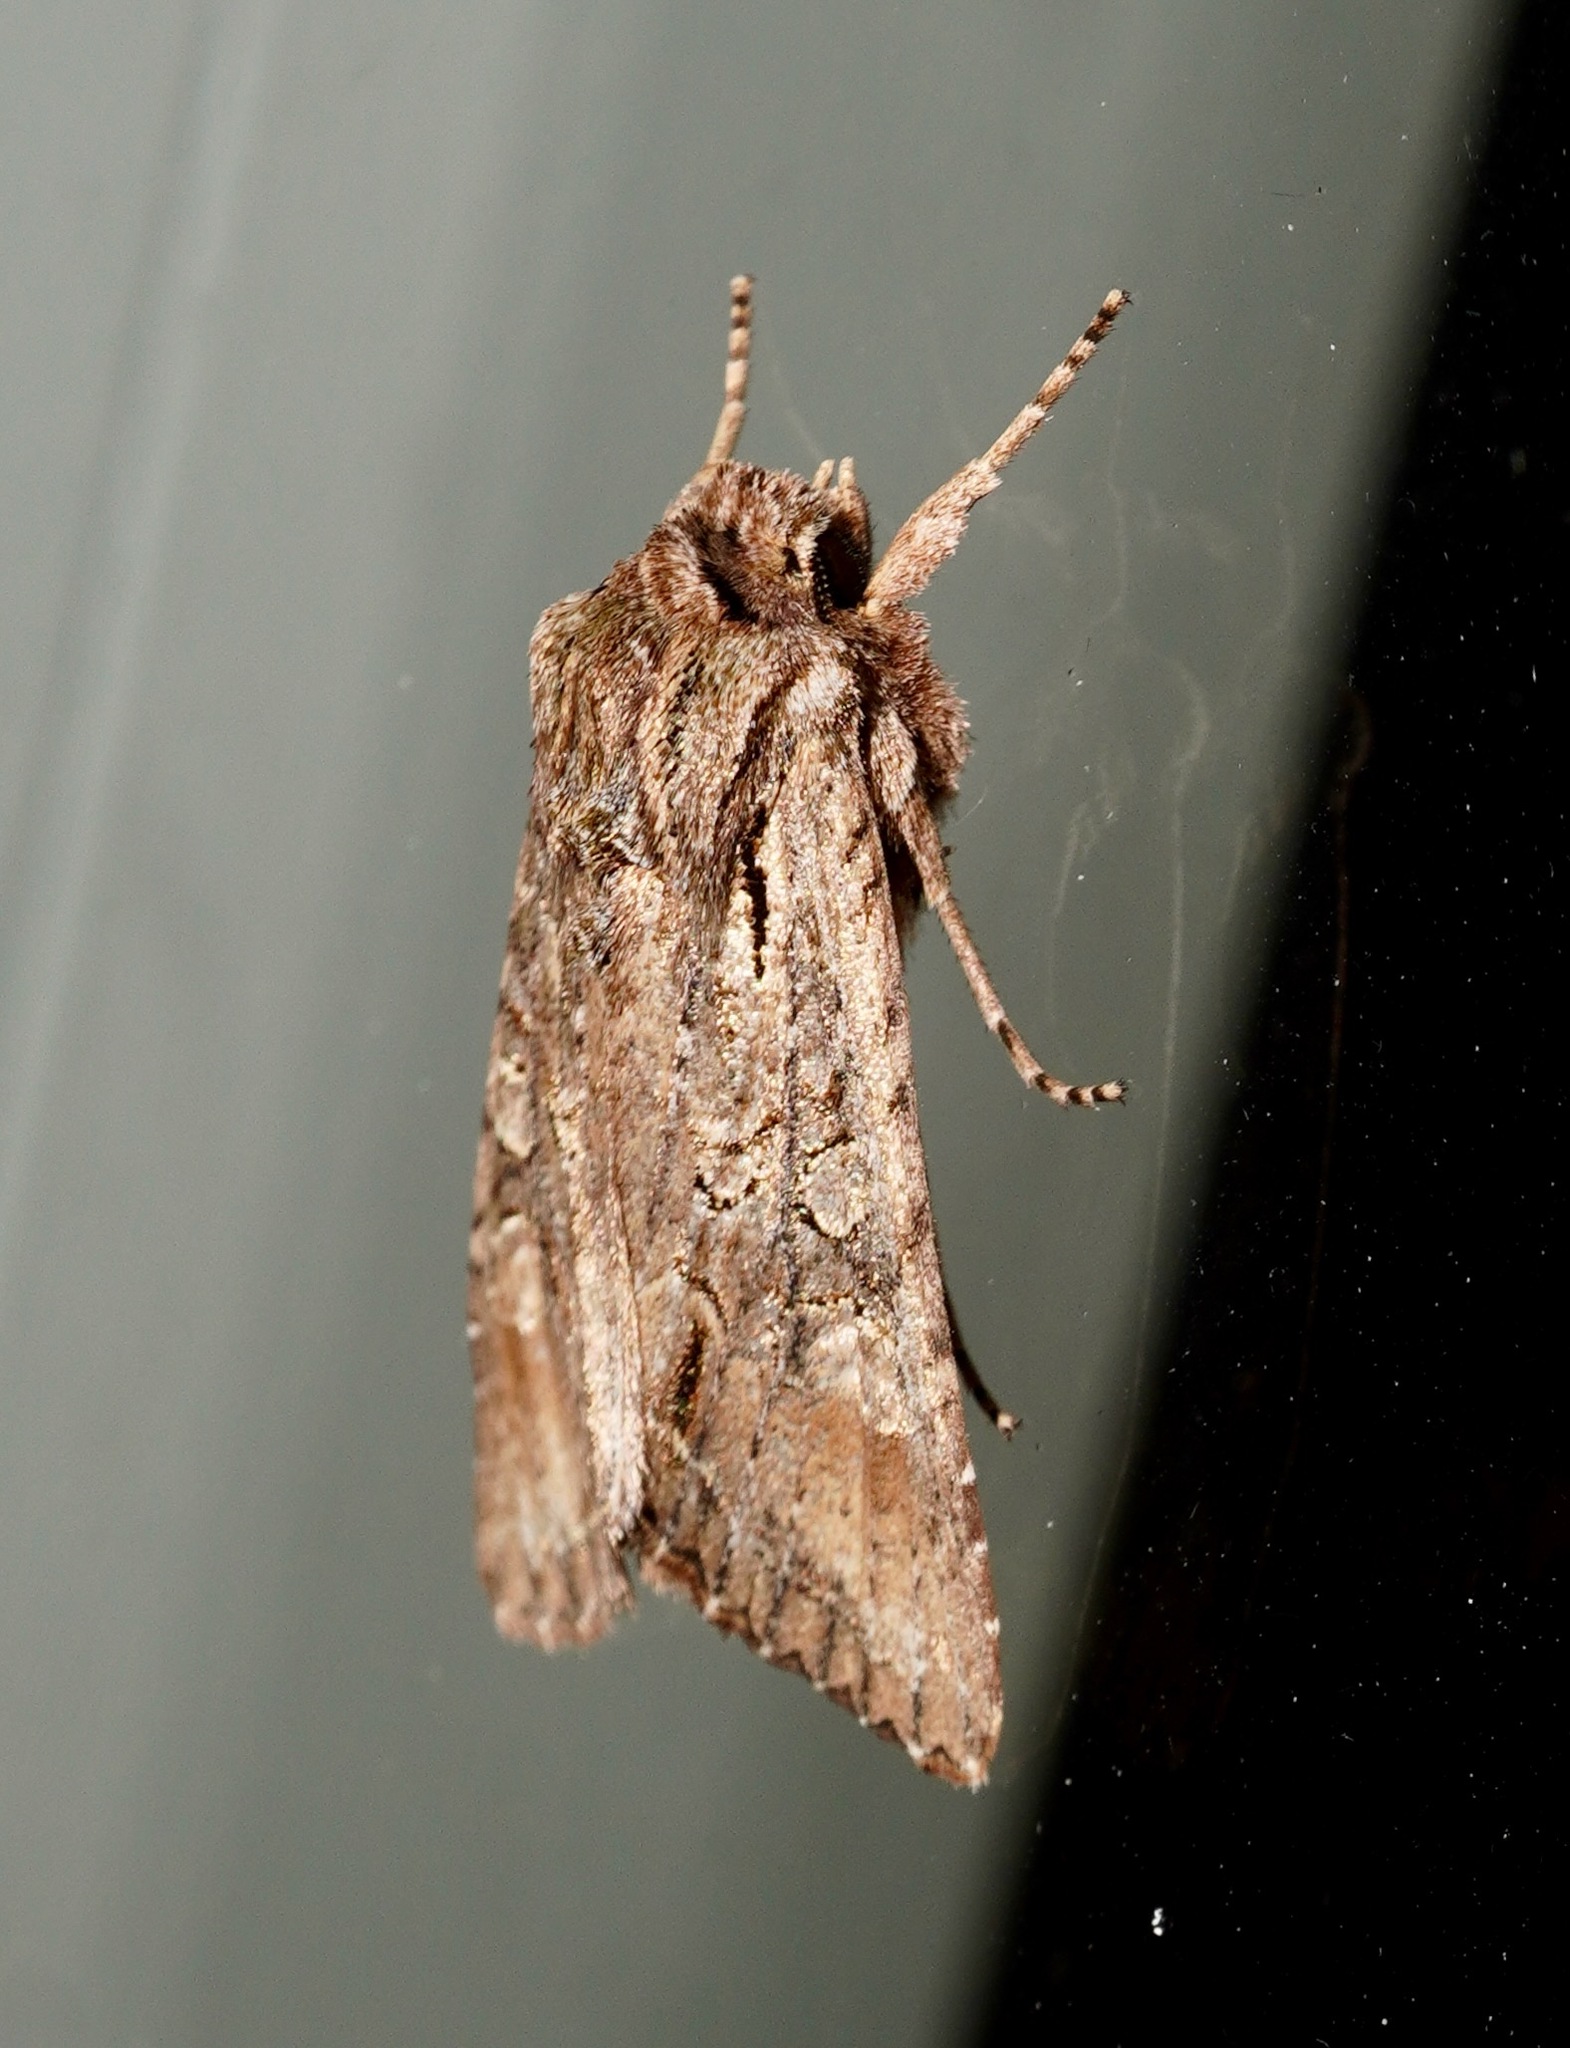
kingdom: Animalia
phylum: Arthropoda
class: Insecta
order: Lepidoptera
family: Noctuidae
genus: Ichneutica
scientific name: Ichneutica mutans
